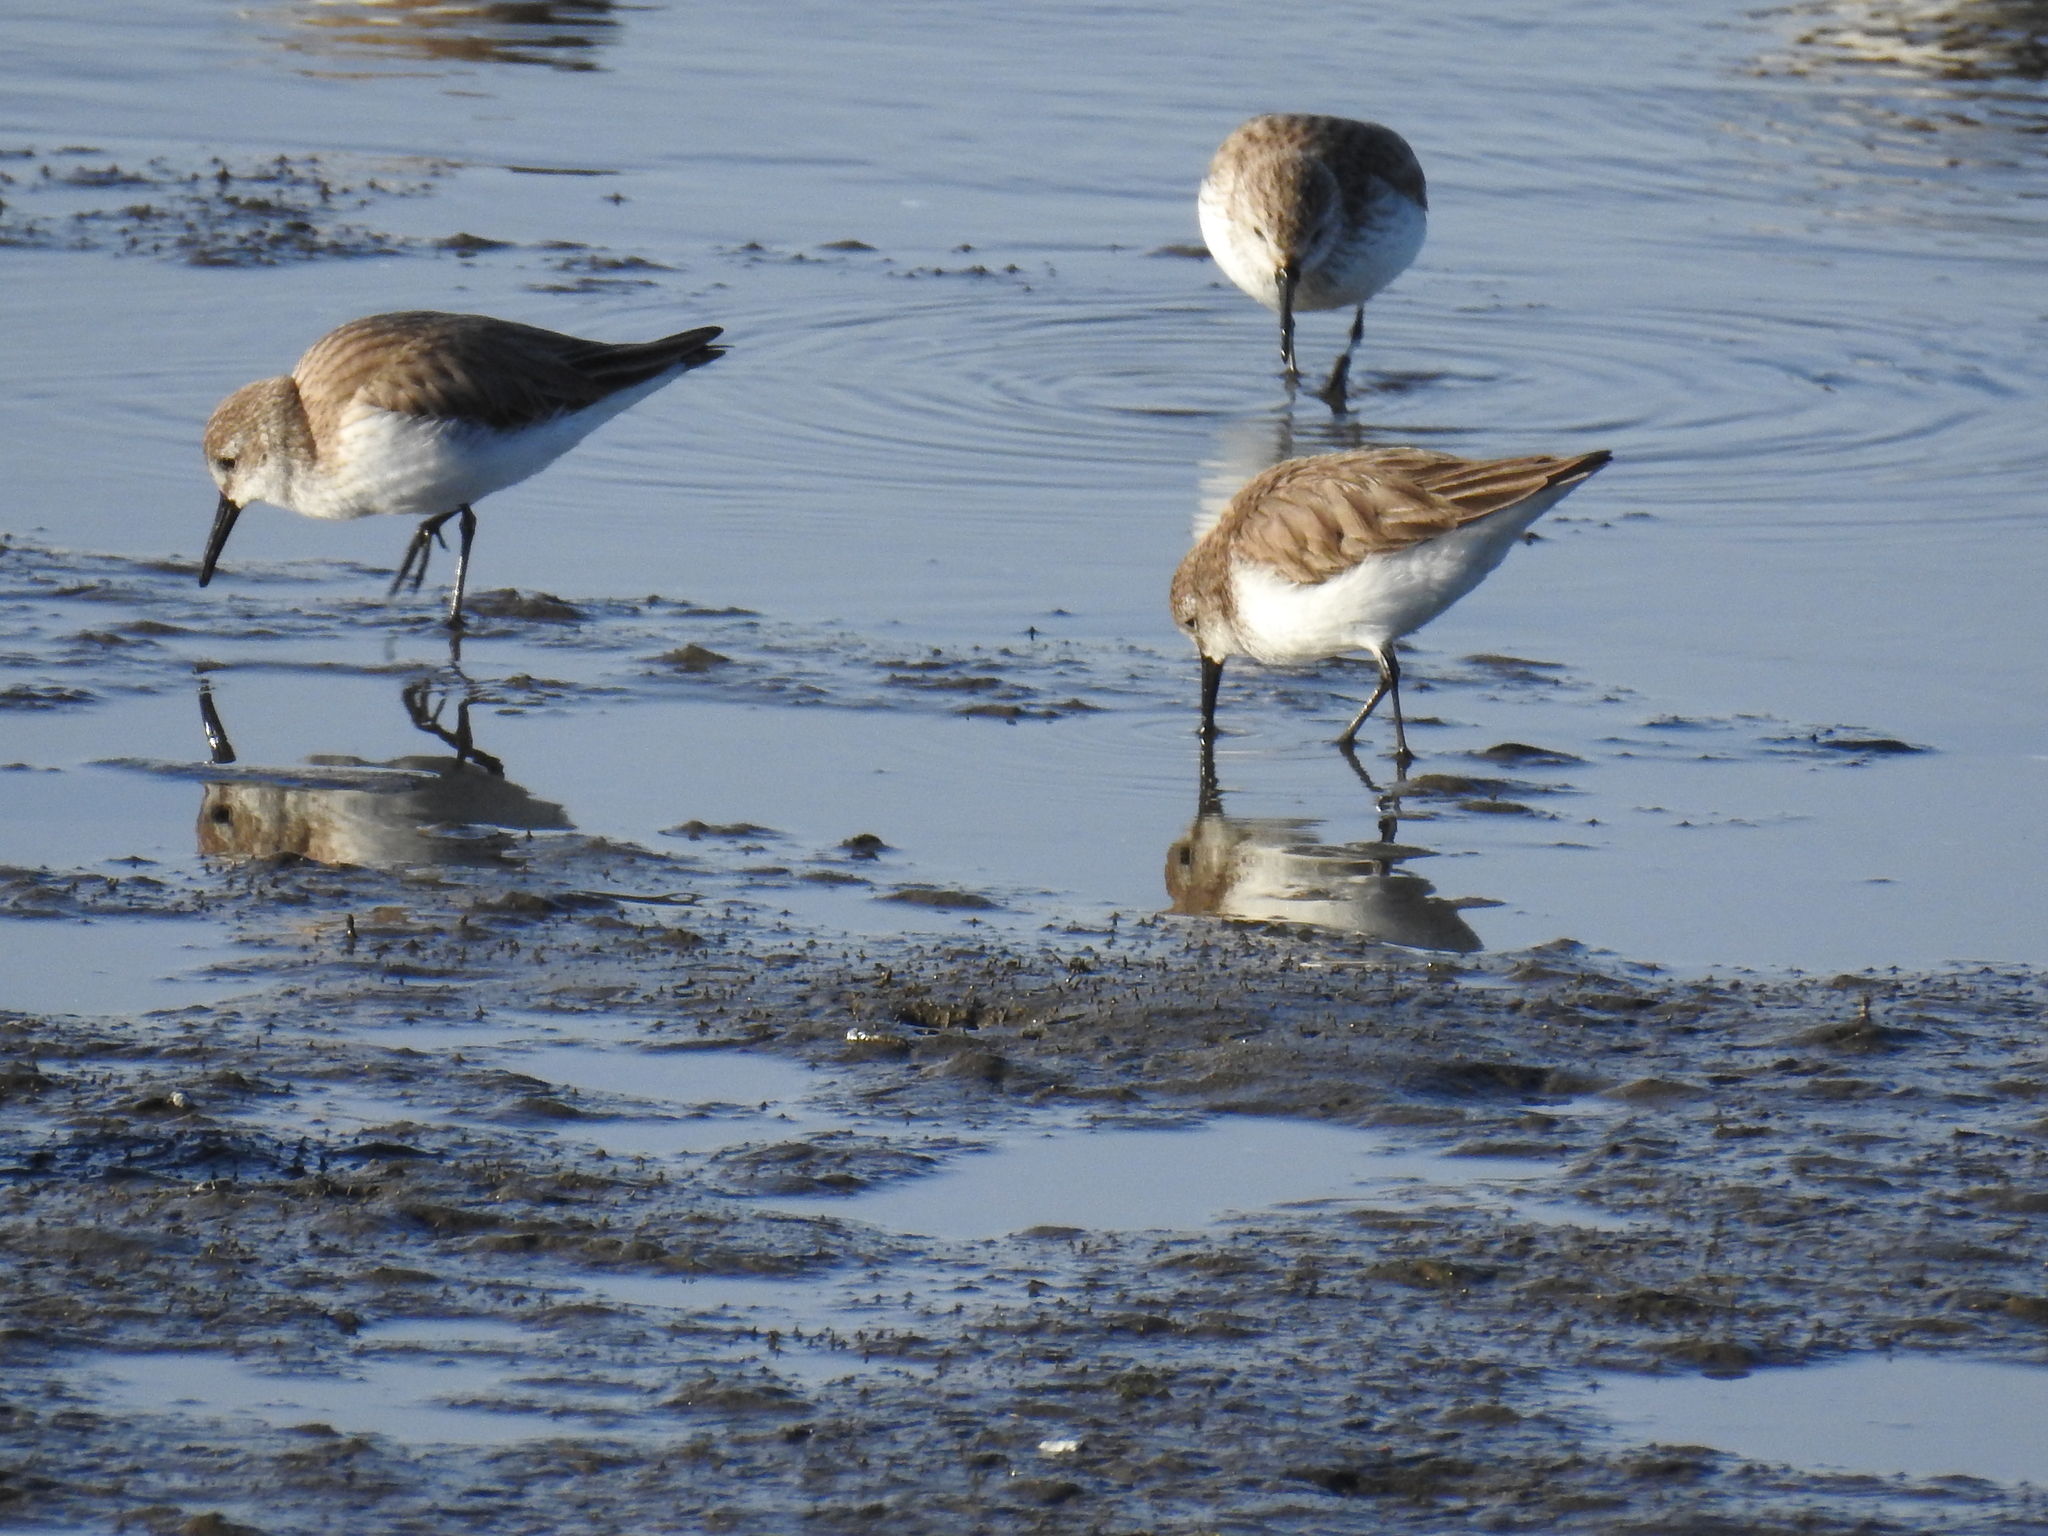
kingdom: Animalia
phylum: Chordata
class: Aves
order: Charadriiformes
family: Scolopacidae
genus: Calidris
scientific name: Calidris mauri
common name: Western sandpiper
